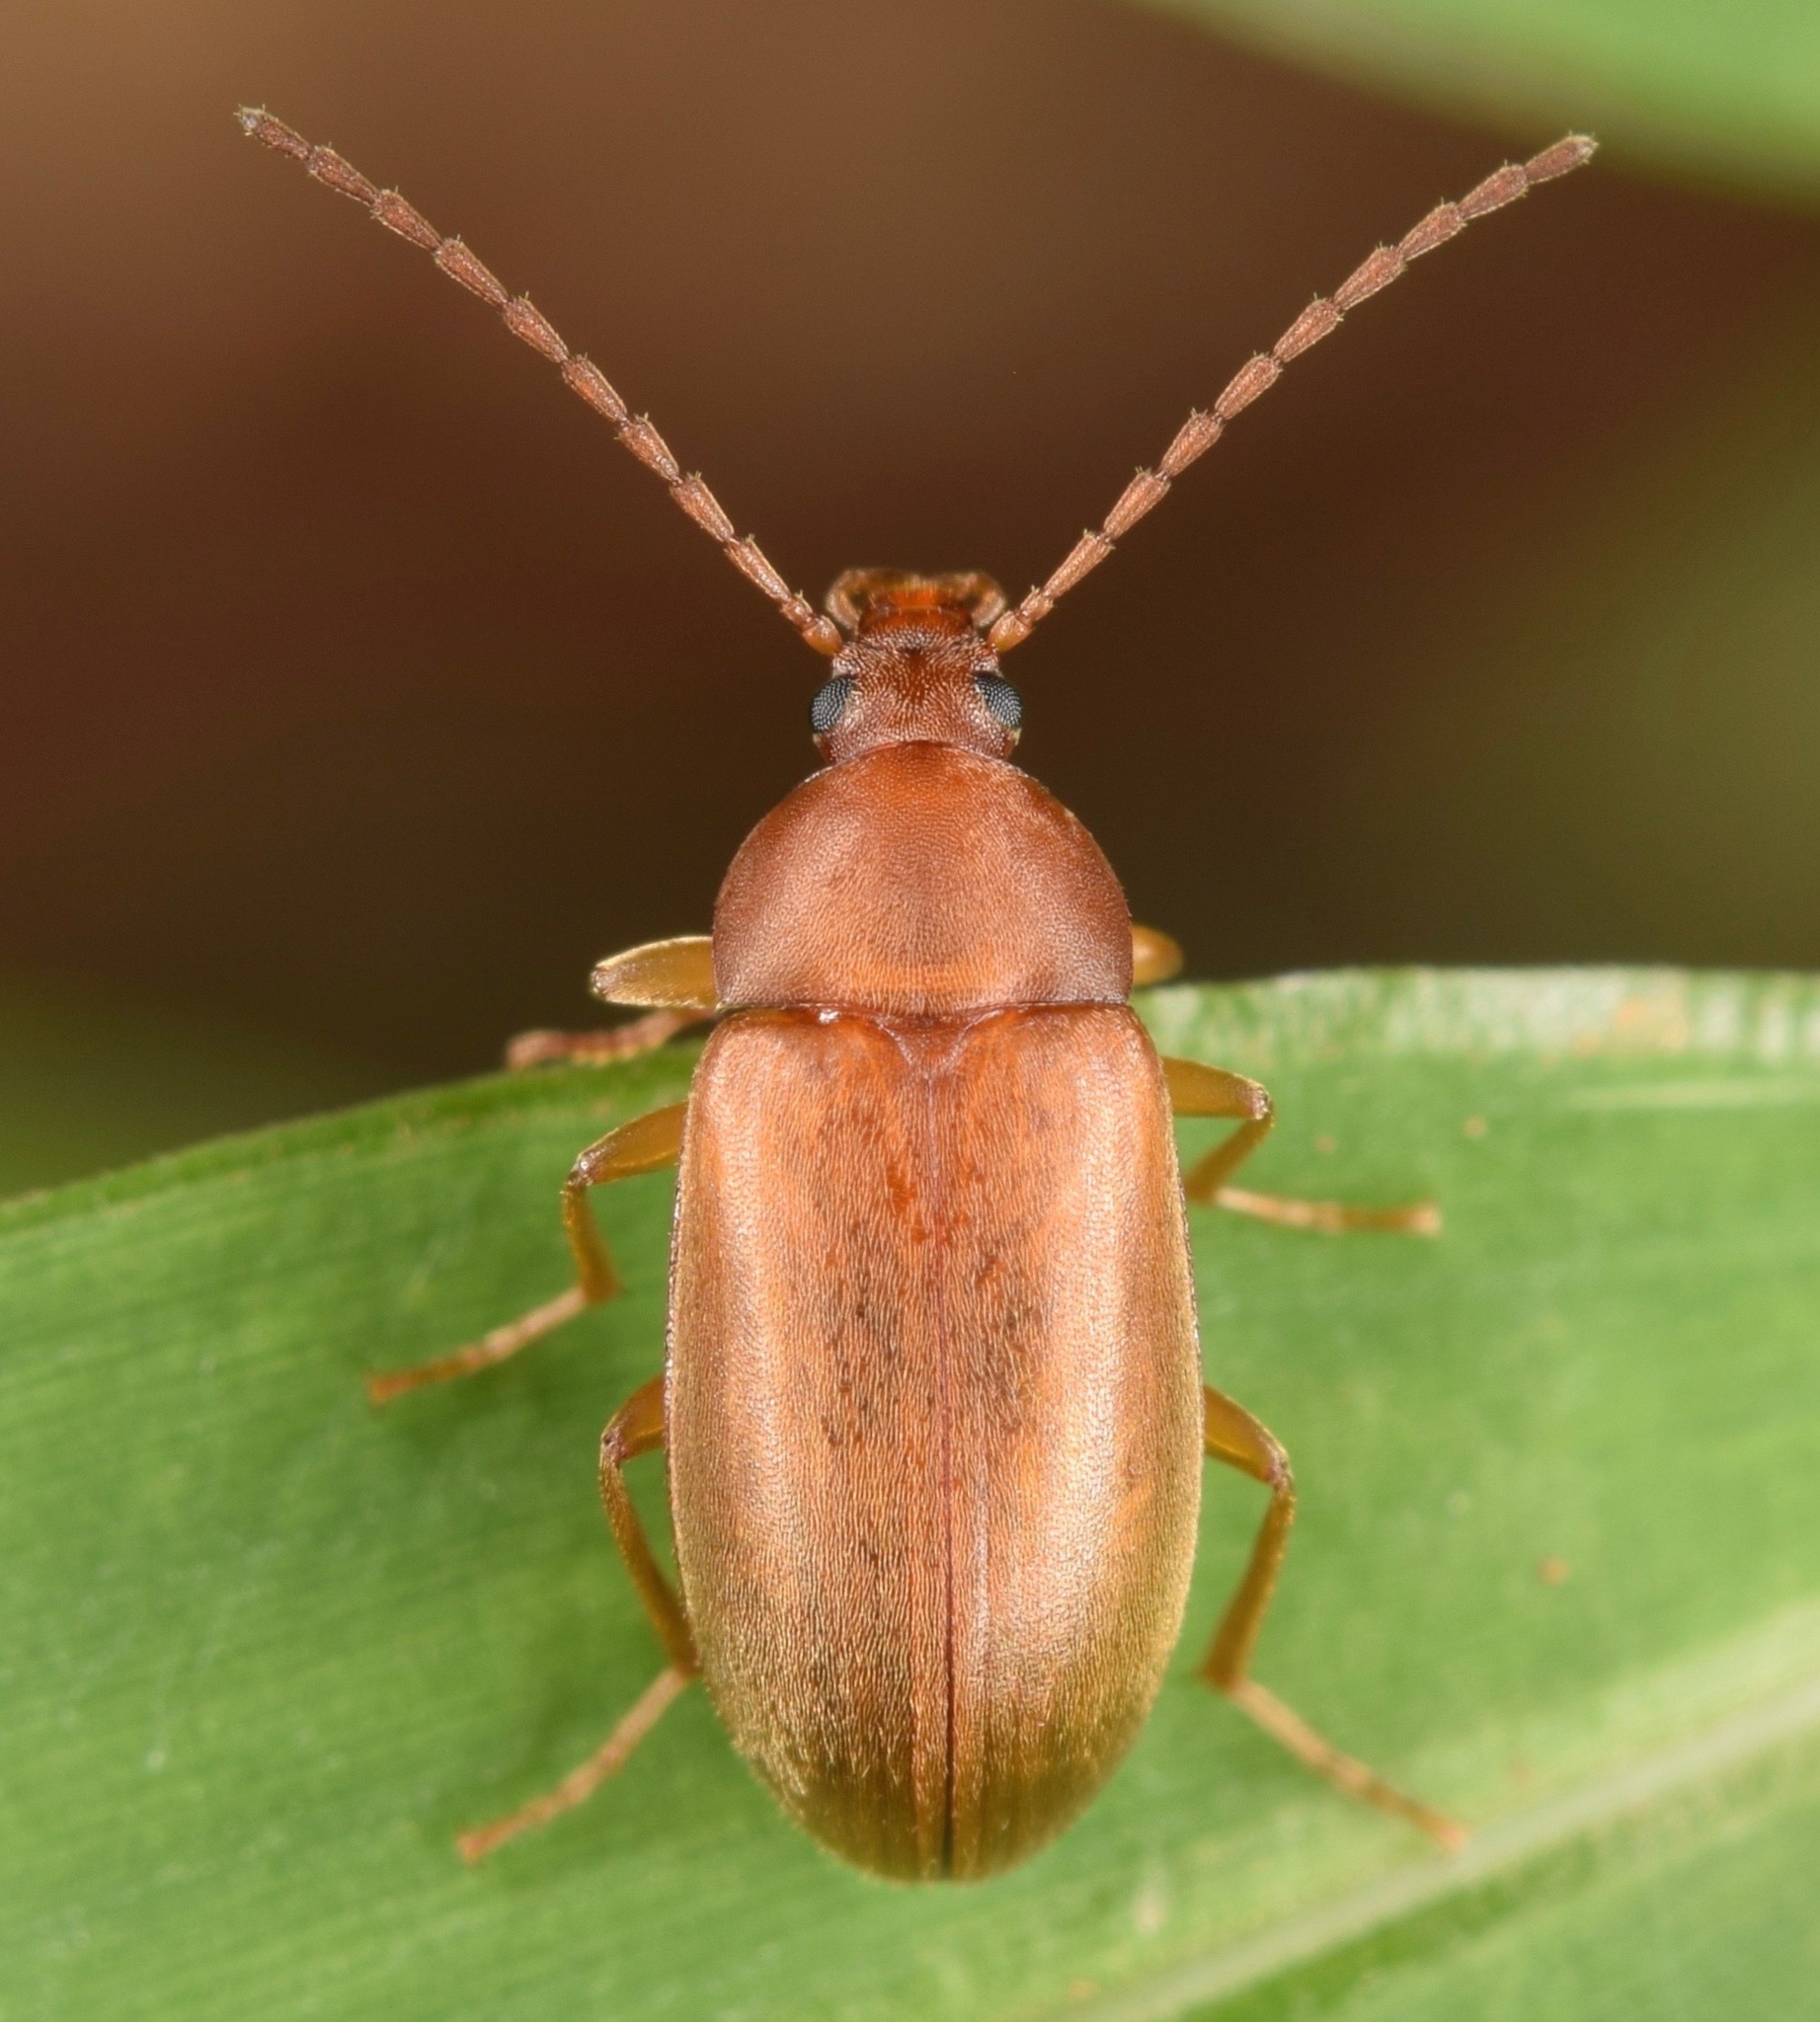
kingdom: Animalia
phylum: Arthropoda
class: Insecta
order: Coleoptera
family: Tenebrionidae
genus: Isomira
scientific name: Isomira sericea
